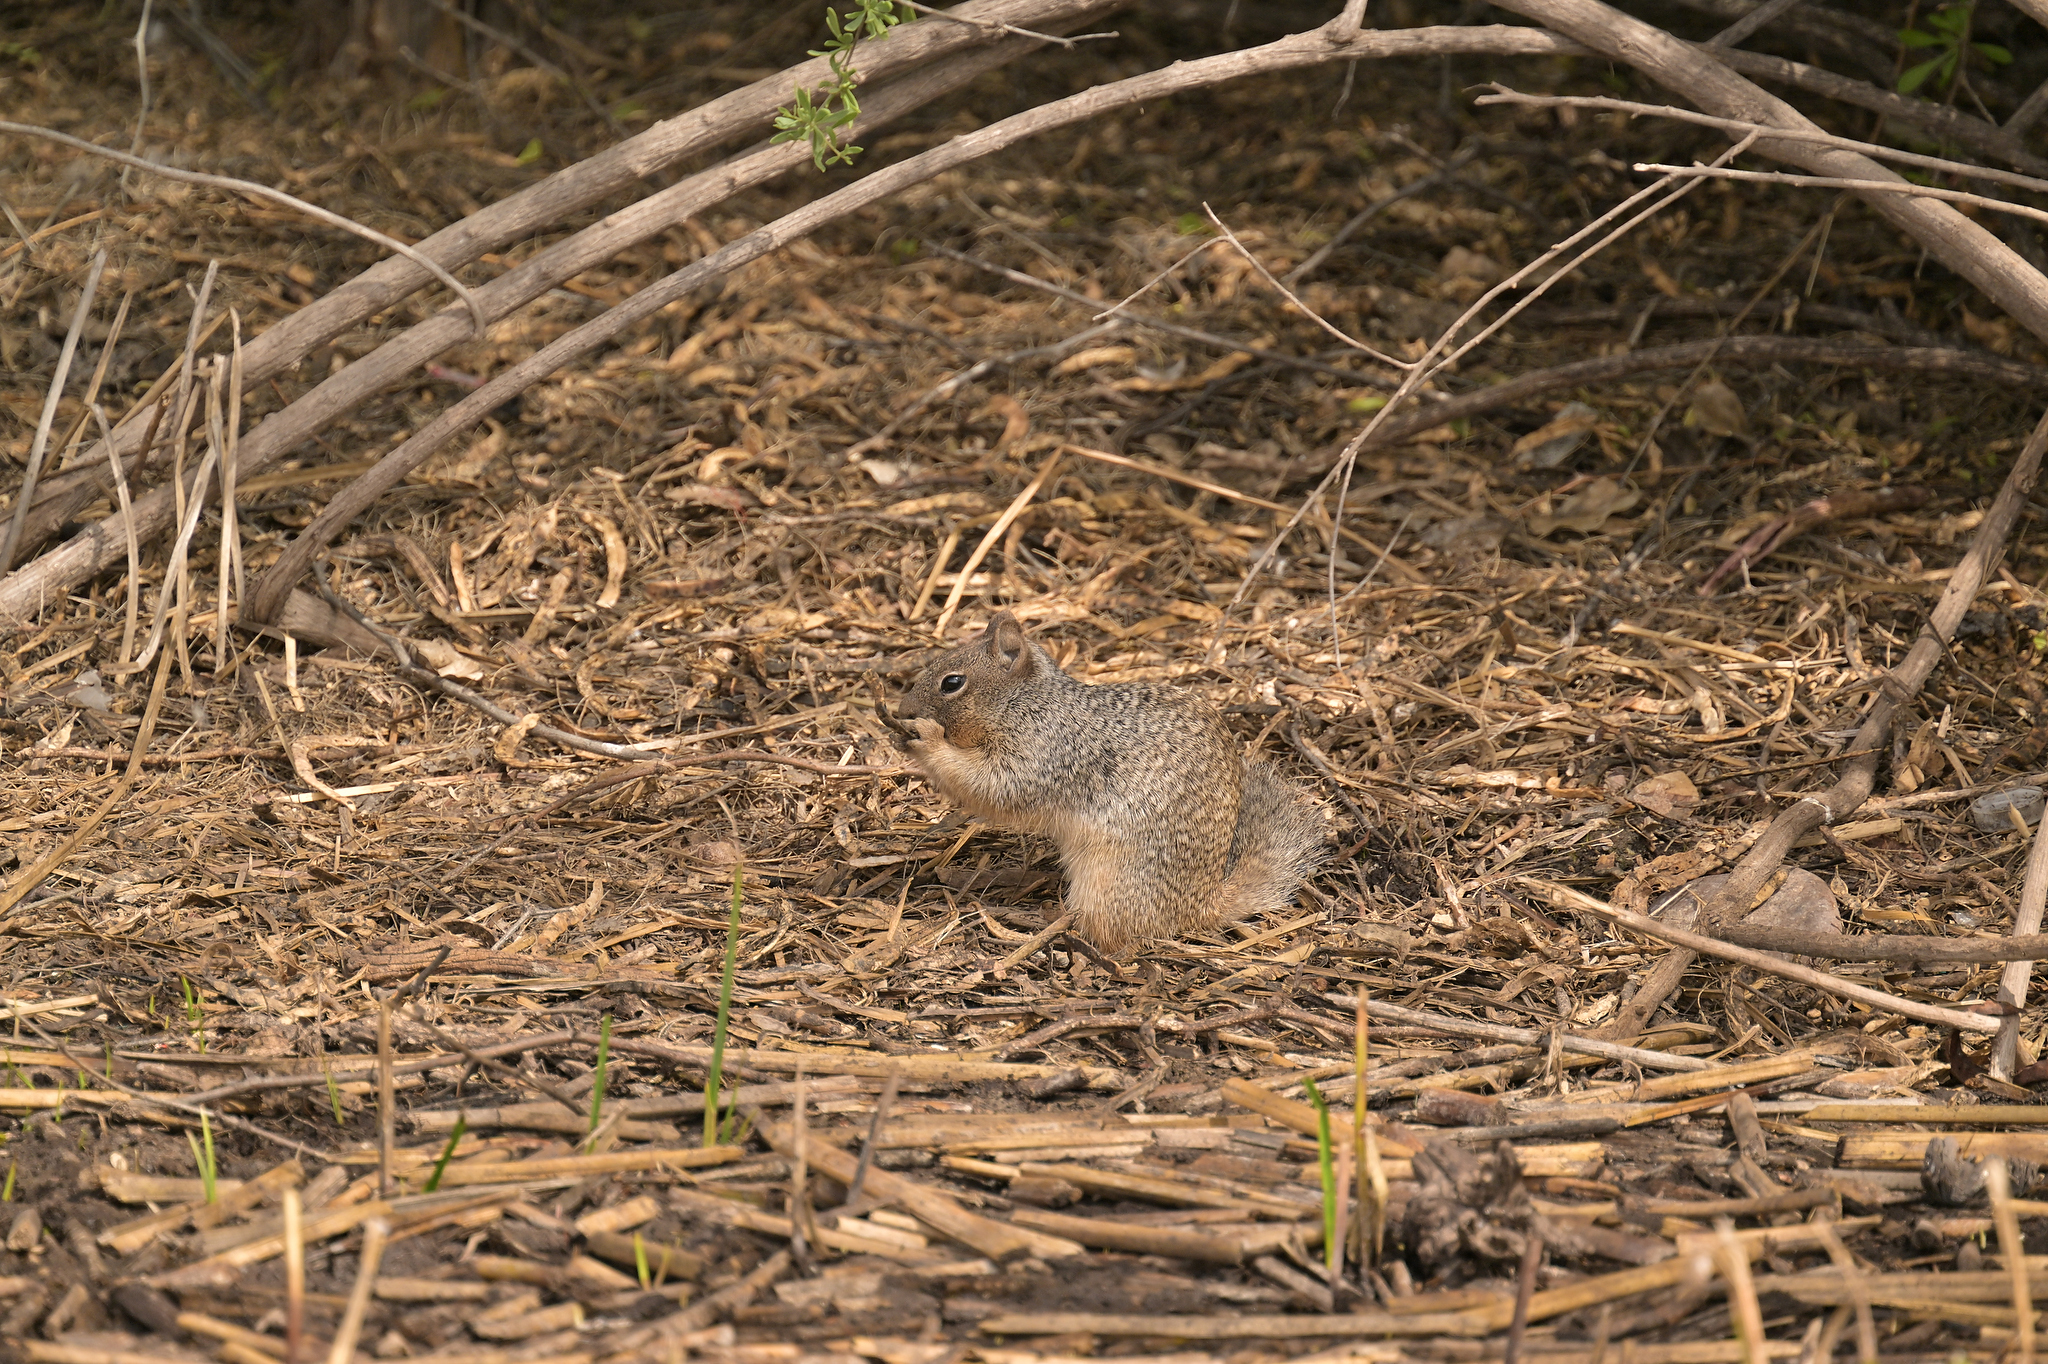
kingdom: Animalia
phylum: Chordata
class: Mammalia
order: Rodentia
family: Sciuridae
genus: Otospermophilus
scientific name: Otospermophilus variegatus
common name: Rock squirrel
